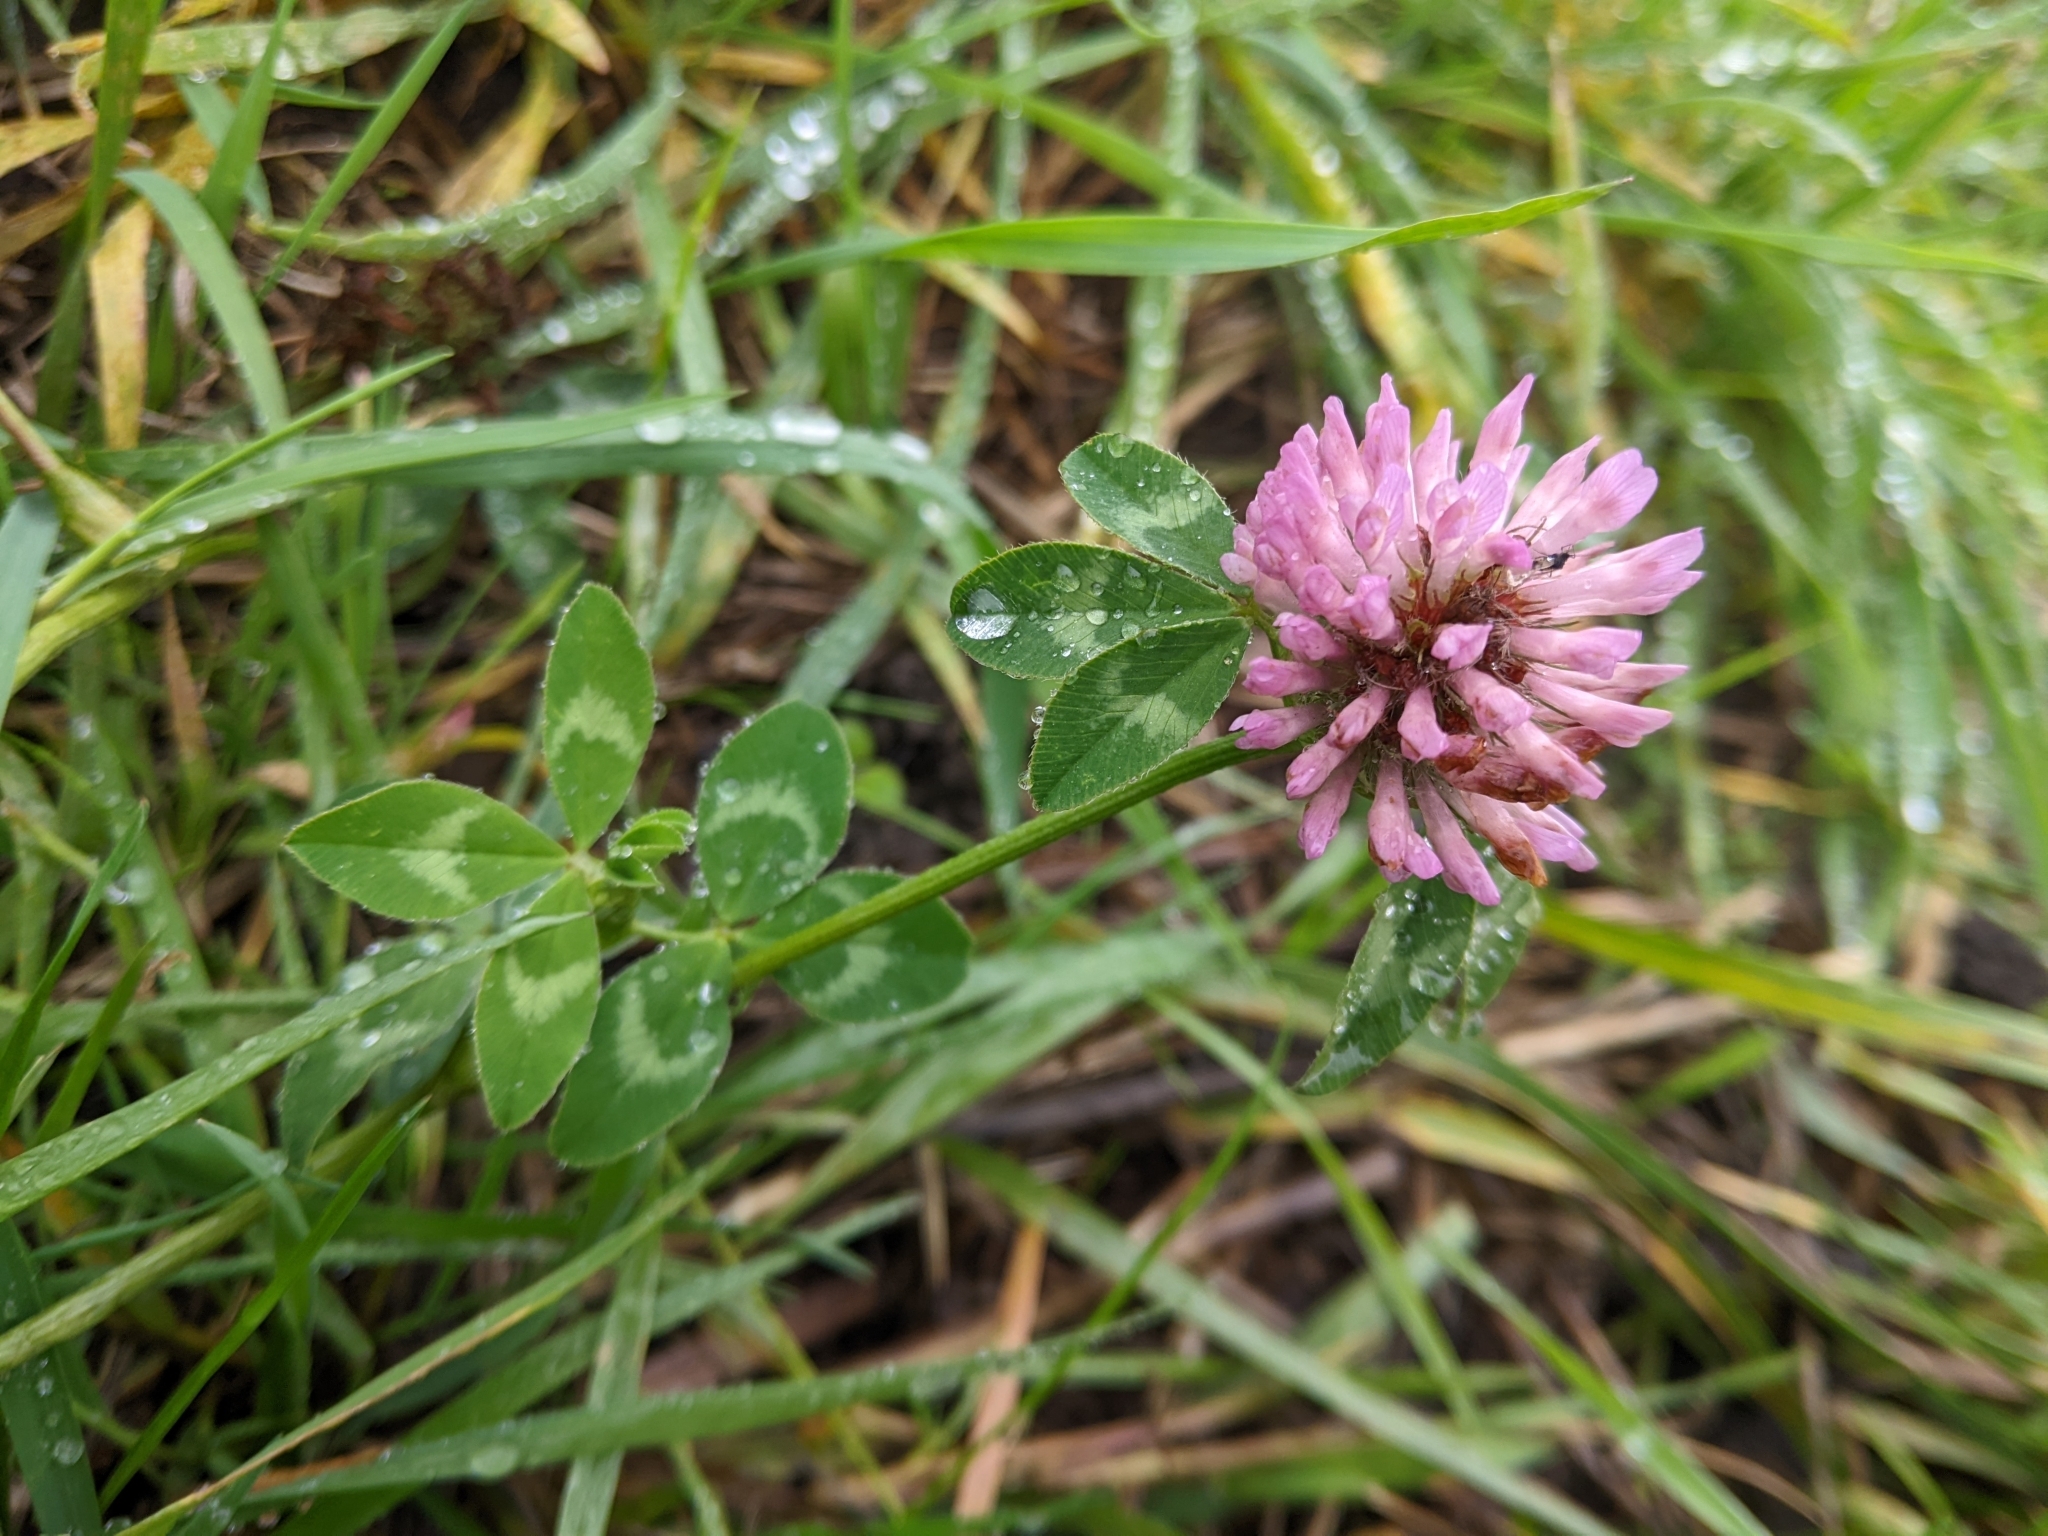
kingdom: Plantae
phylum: Tracheophyta
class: Magnoliopsida
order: Fabales
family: Fabaceae
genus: Trifolium
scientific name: Trifolium pratense
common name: Red clover
